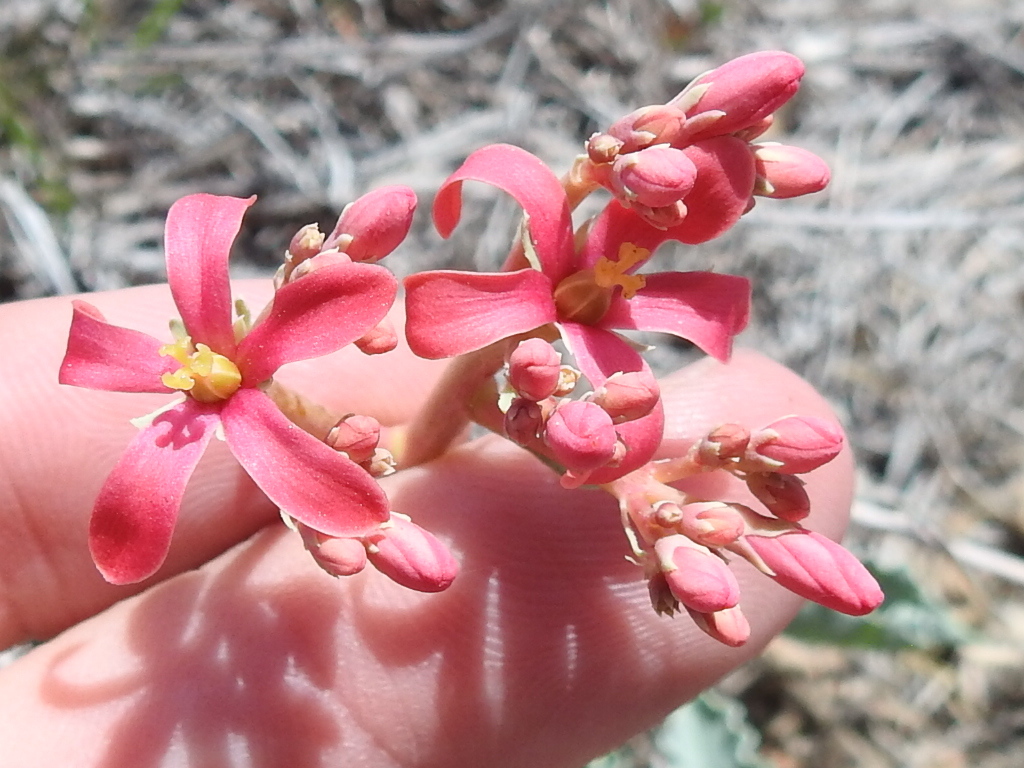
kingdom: Plantae
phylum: Tracheophyta
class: Magnoliopsida
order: Malpighiales
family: Euphorbiaceae
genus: Jatropha
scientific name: Jatropha cathartica
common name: Berlander's nettlespurge
